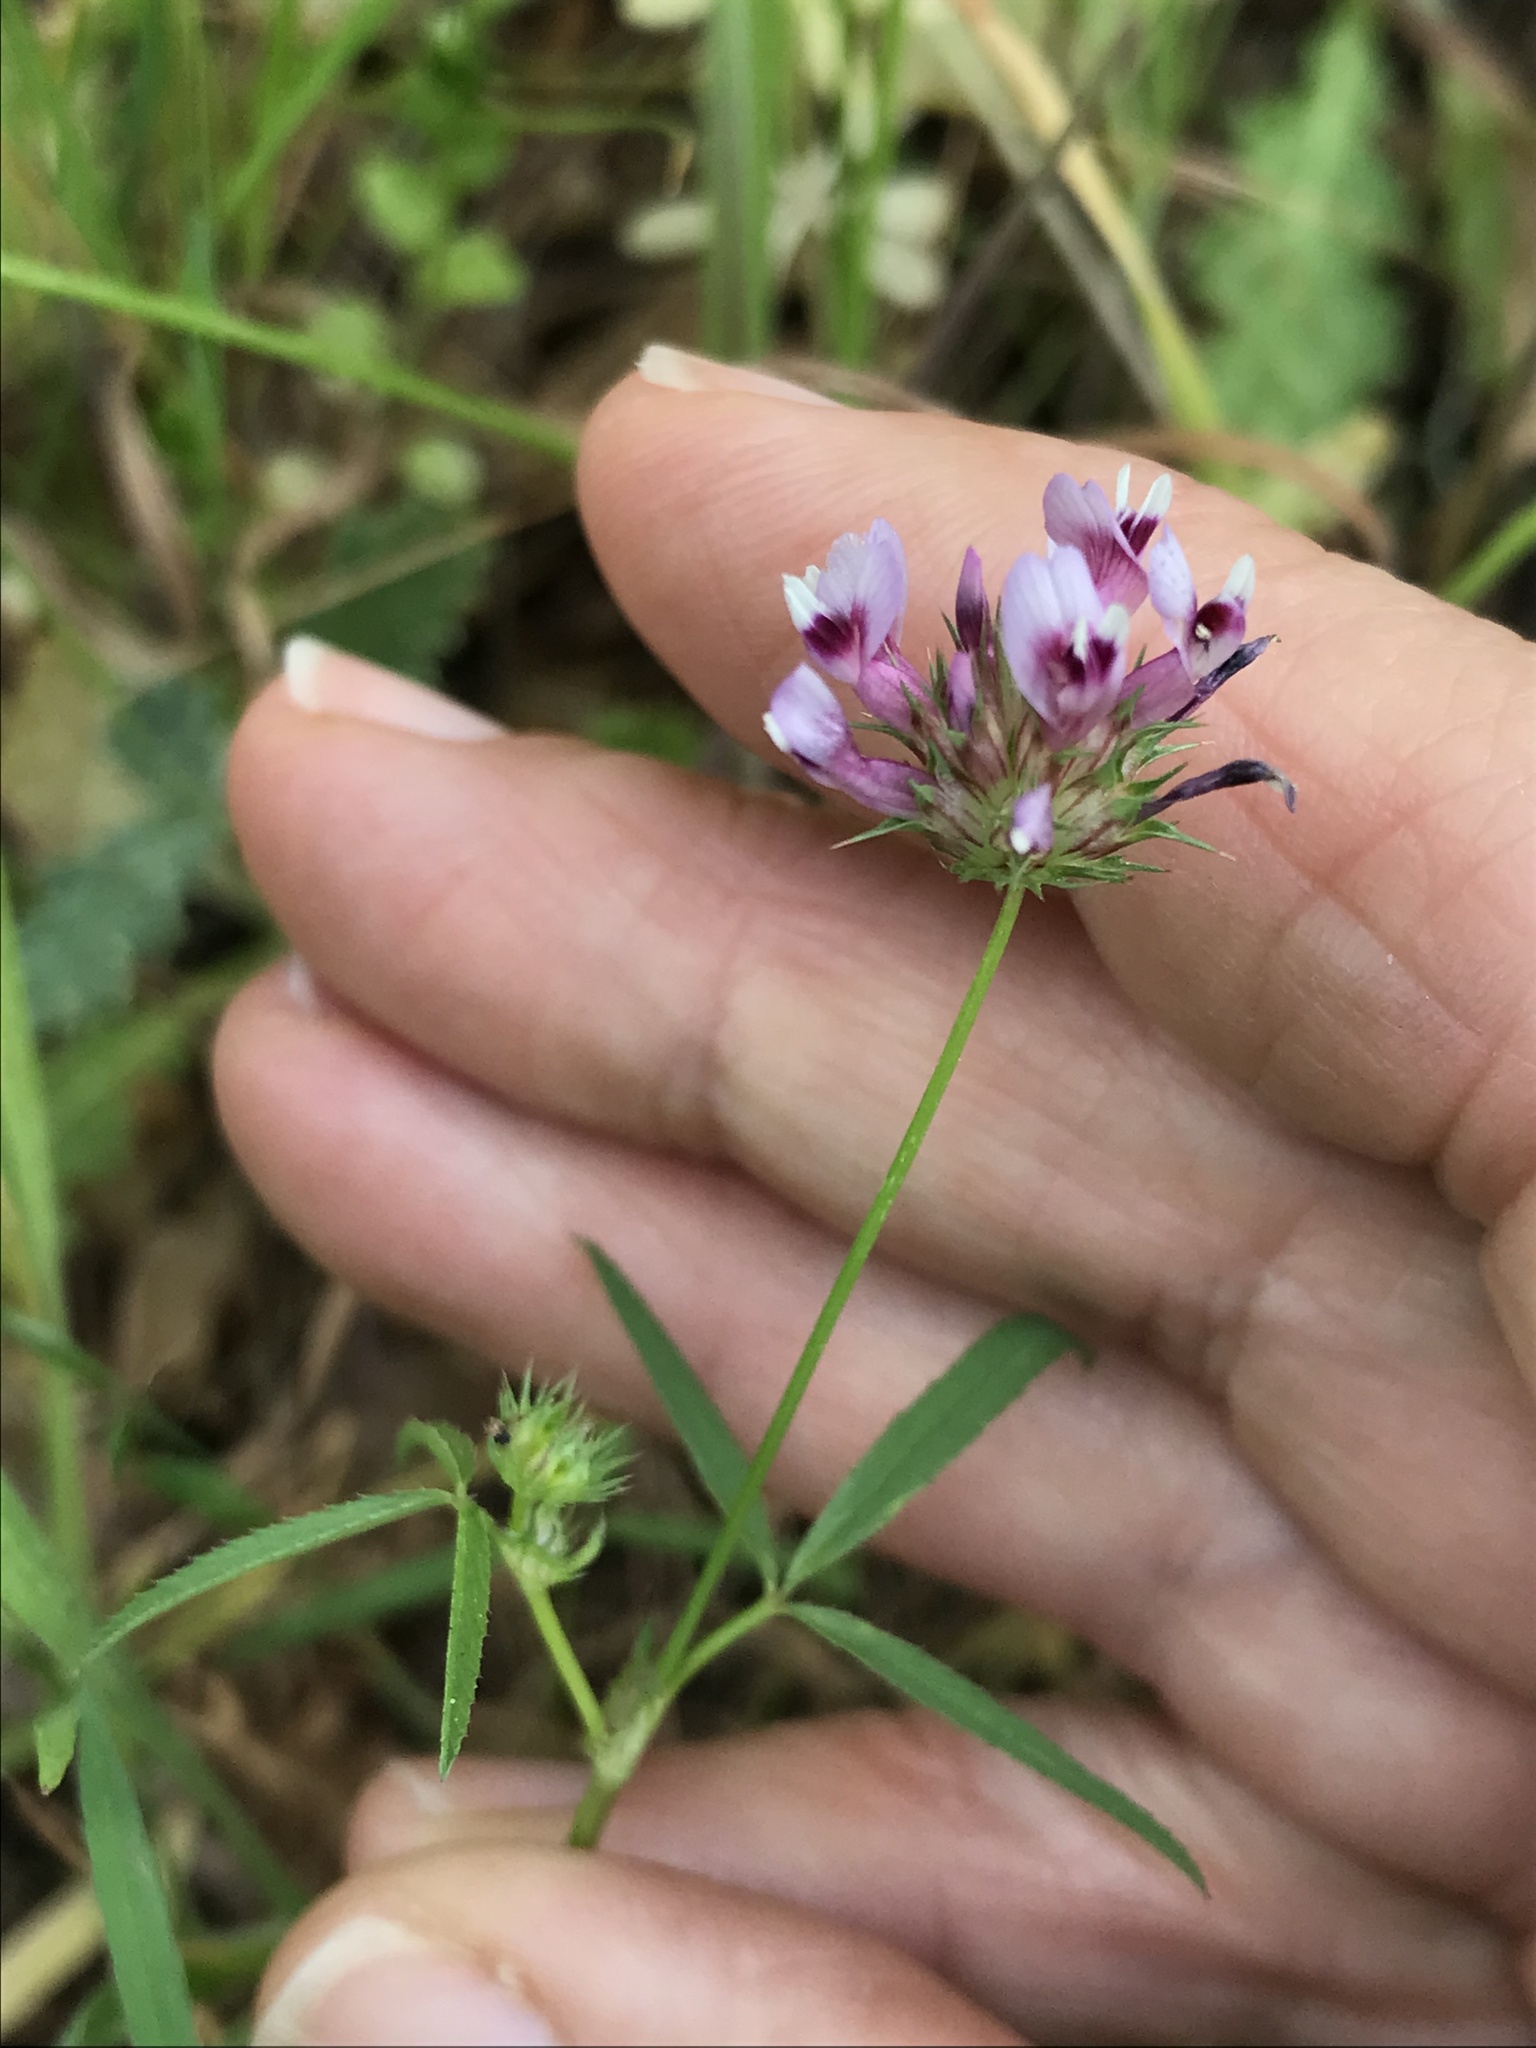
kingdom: Plantae
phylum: Tracheophyta
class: Magnoliopsida
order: Fabales
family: Fabaceae
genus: Trifolium
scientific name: Trifolium willdenovii
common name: Tomcat clover
